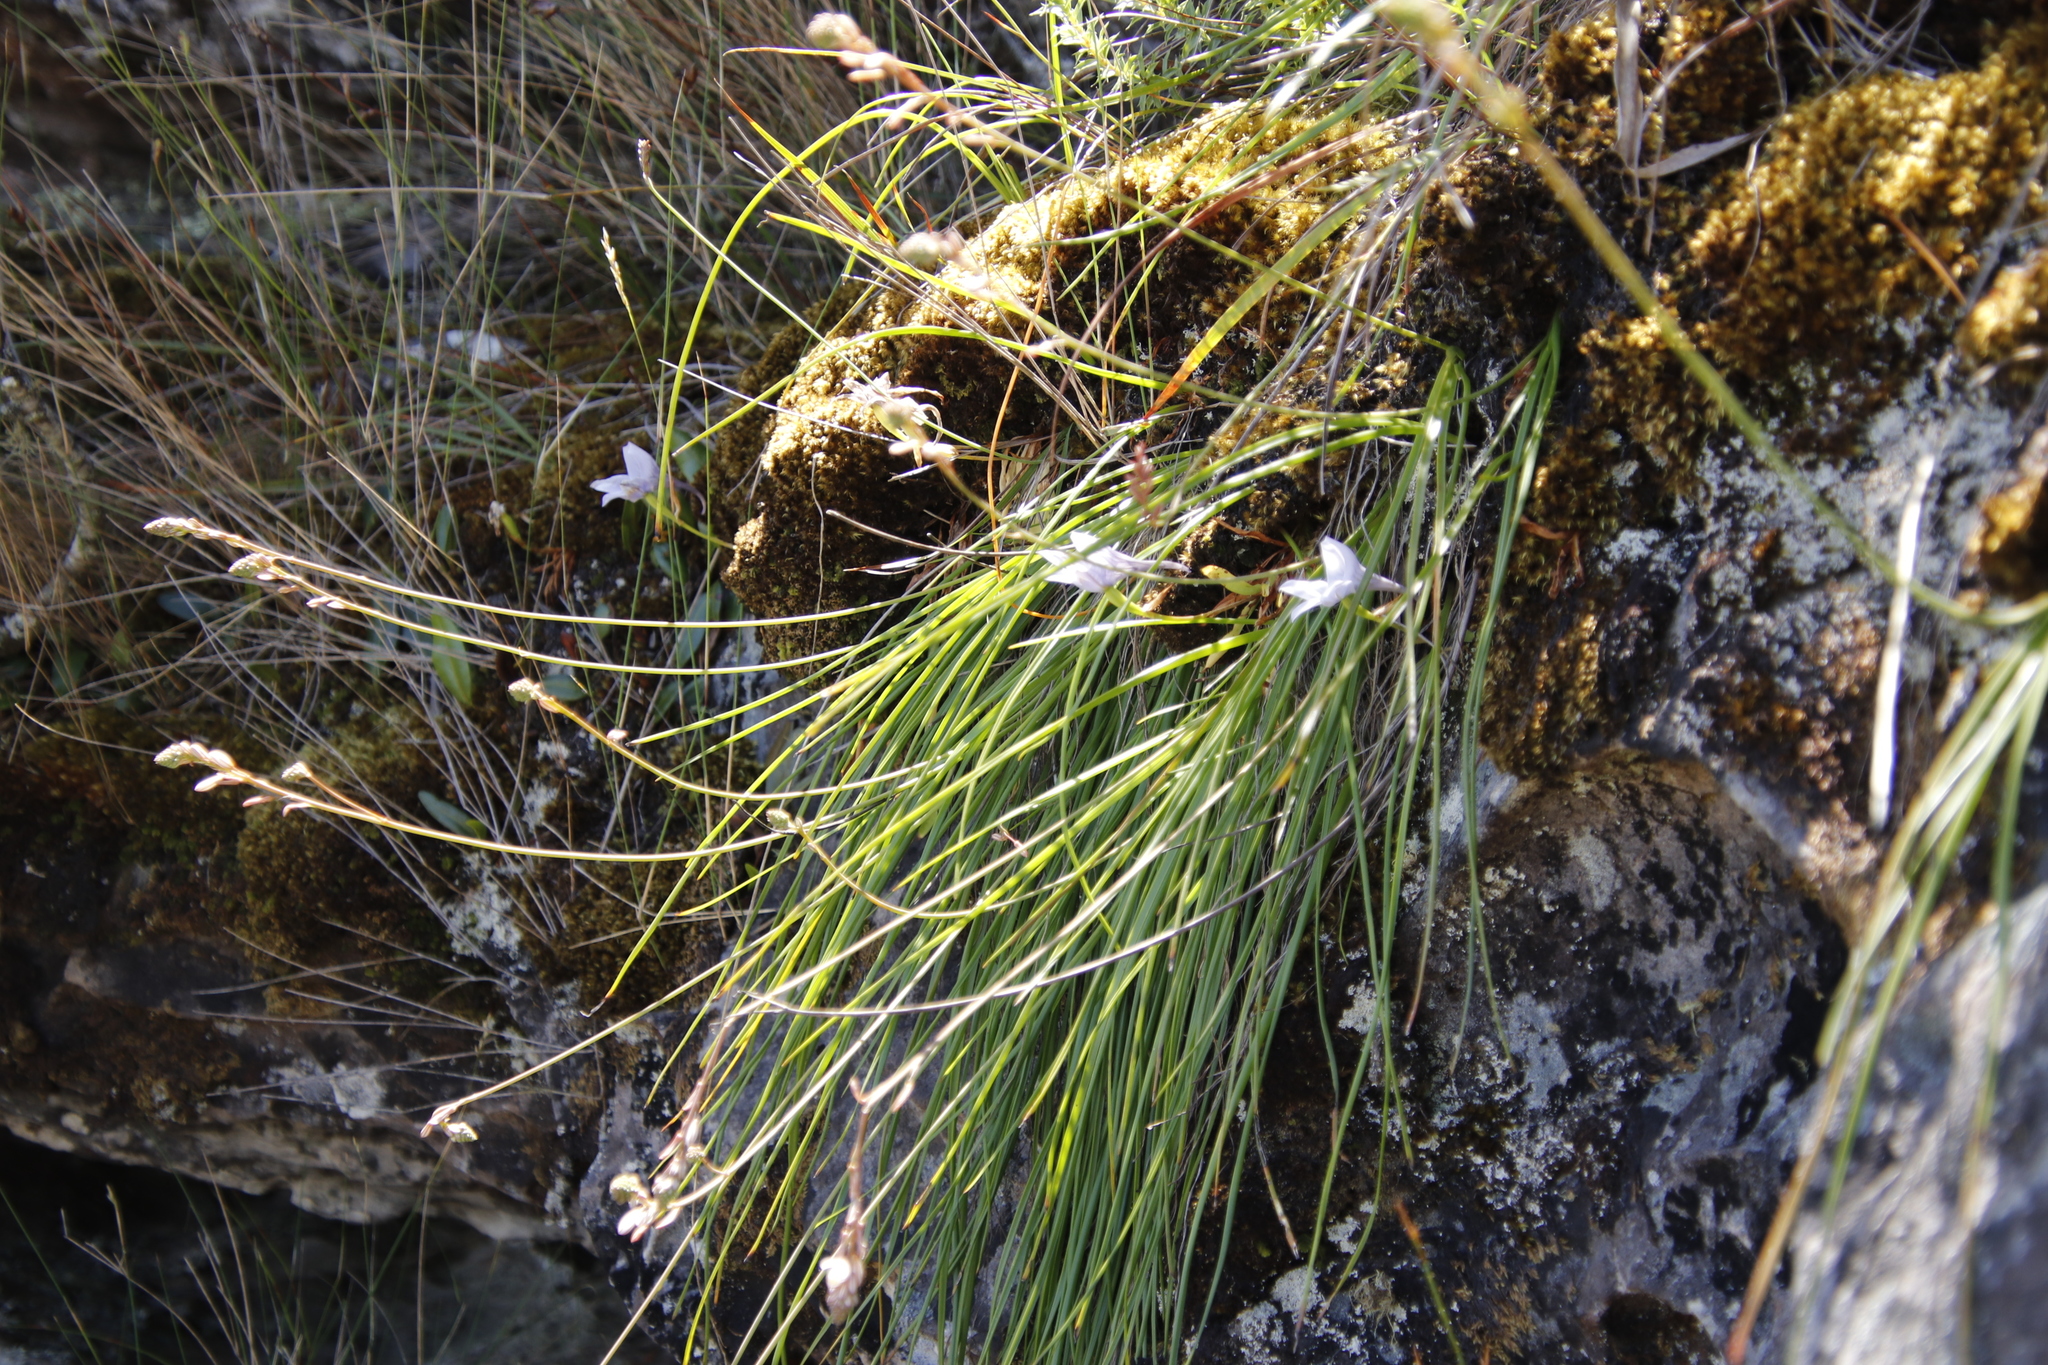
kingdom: Plantae
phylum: Tracheophyta
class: Liliopsida
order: Asparagales
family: Orchidaceae
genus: Disa
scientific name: Disa longicornu
